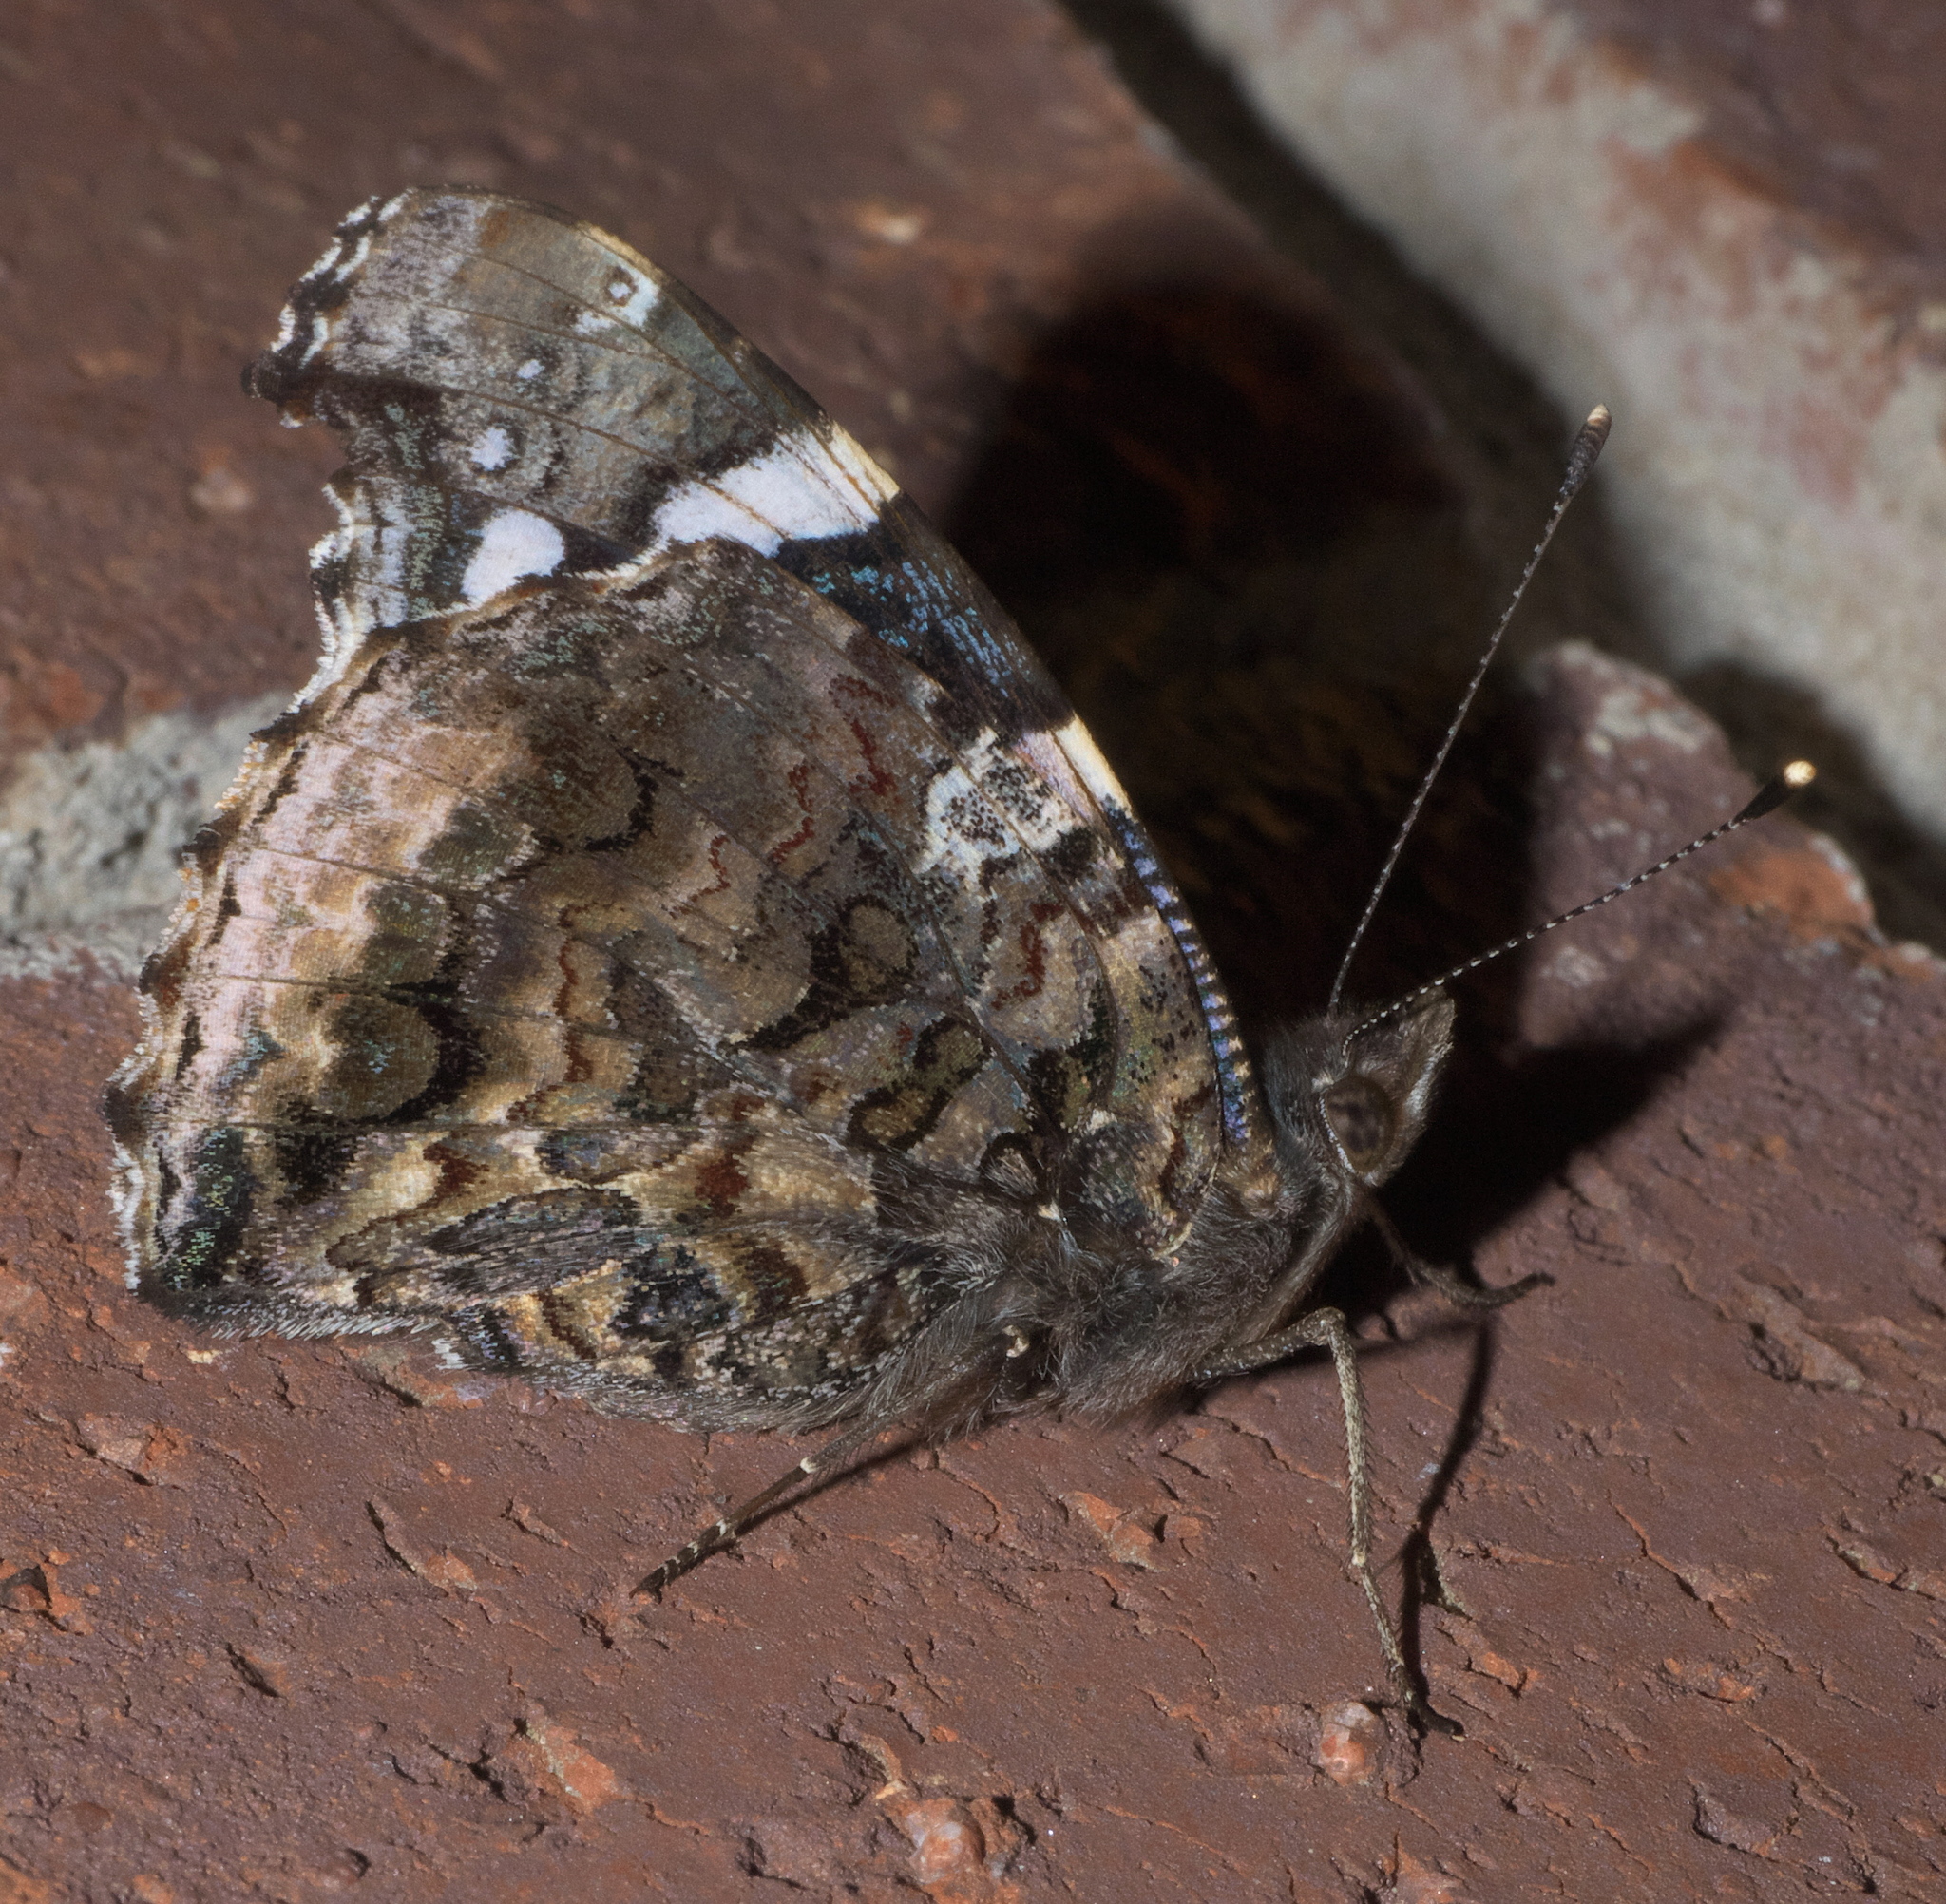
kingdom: Animalia
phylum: Arthropoda
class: Insecta
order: Lepidoptera
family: Nymphalidae
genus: Vanessa
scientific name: Vanessa atalanta
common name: Red admiral
